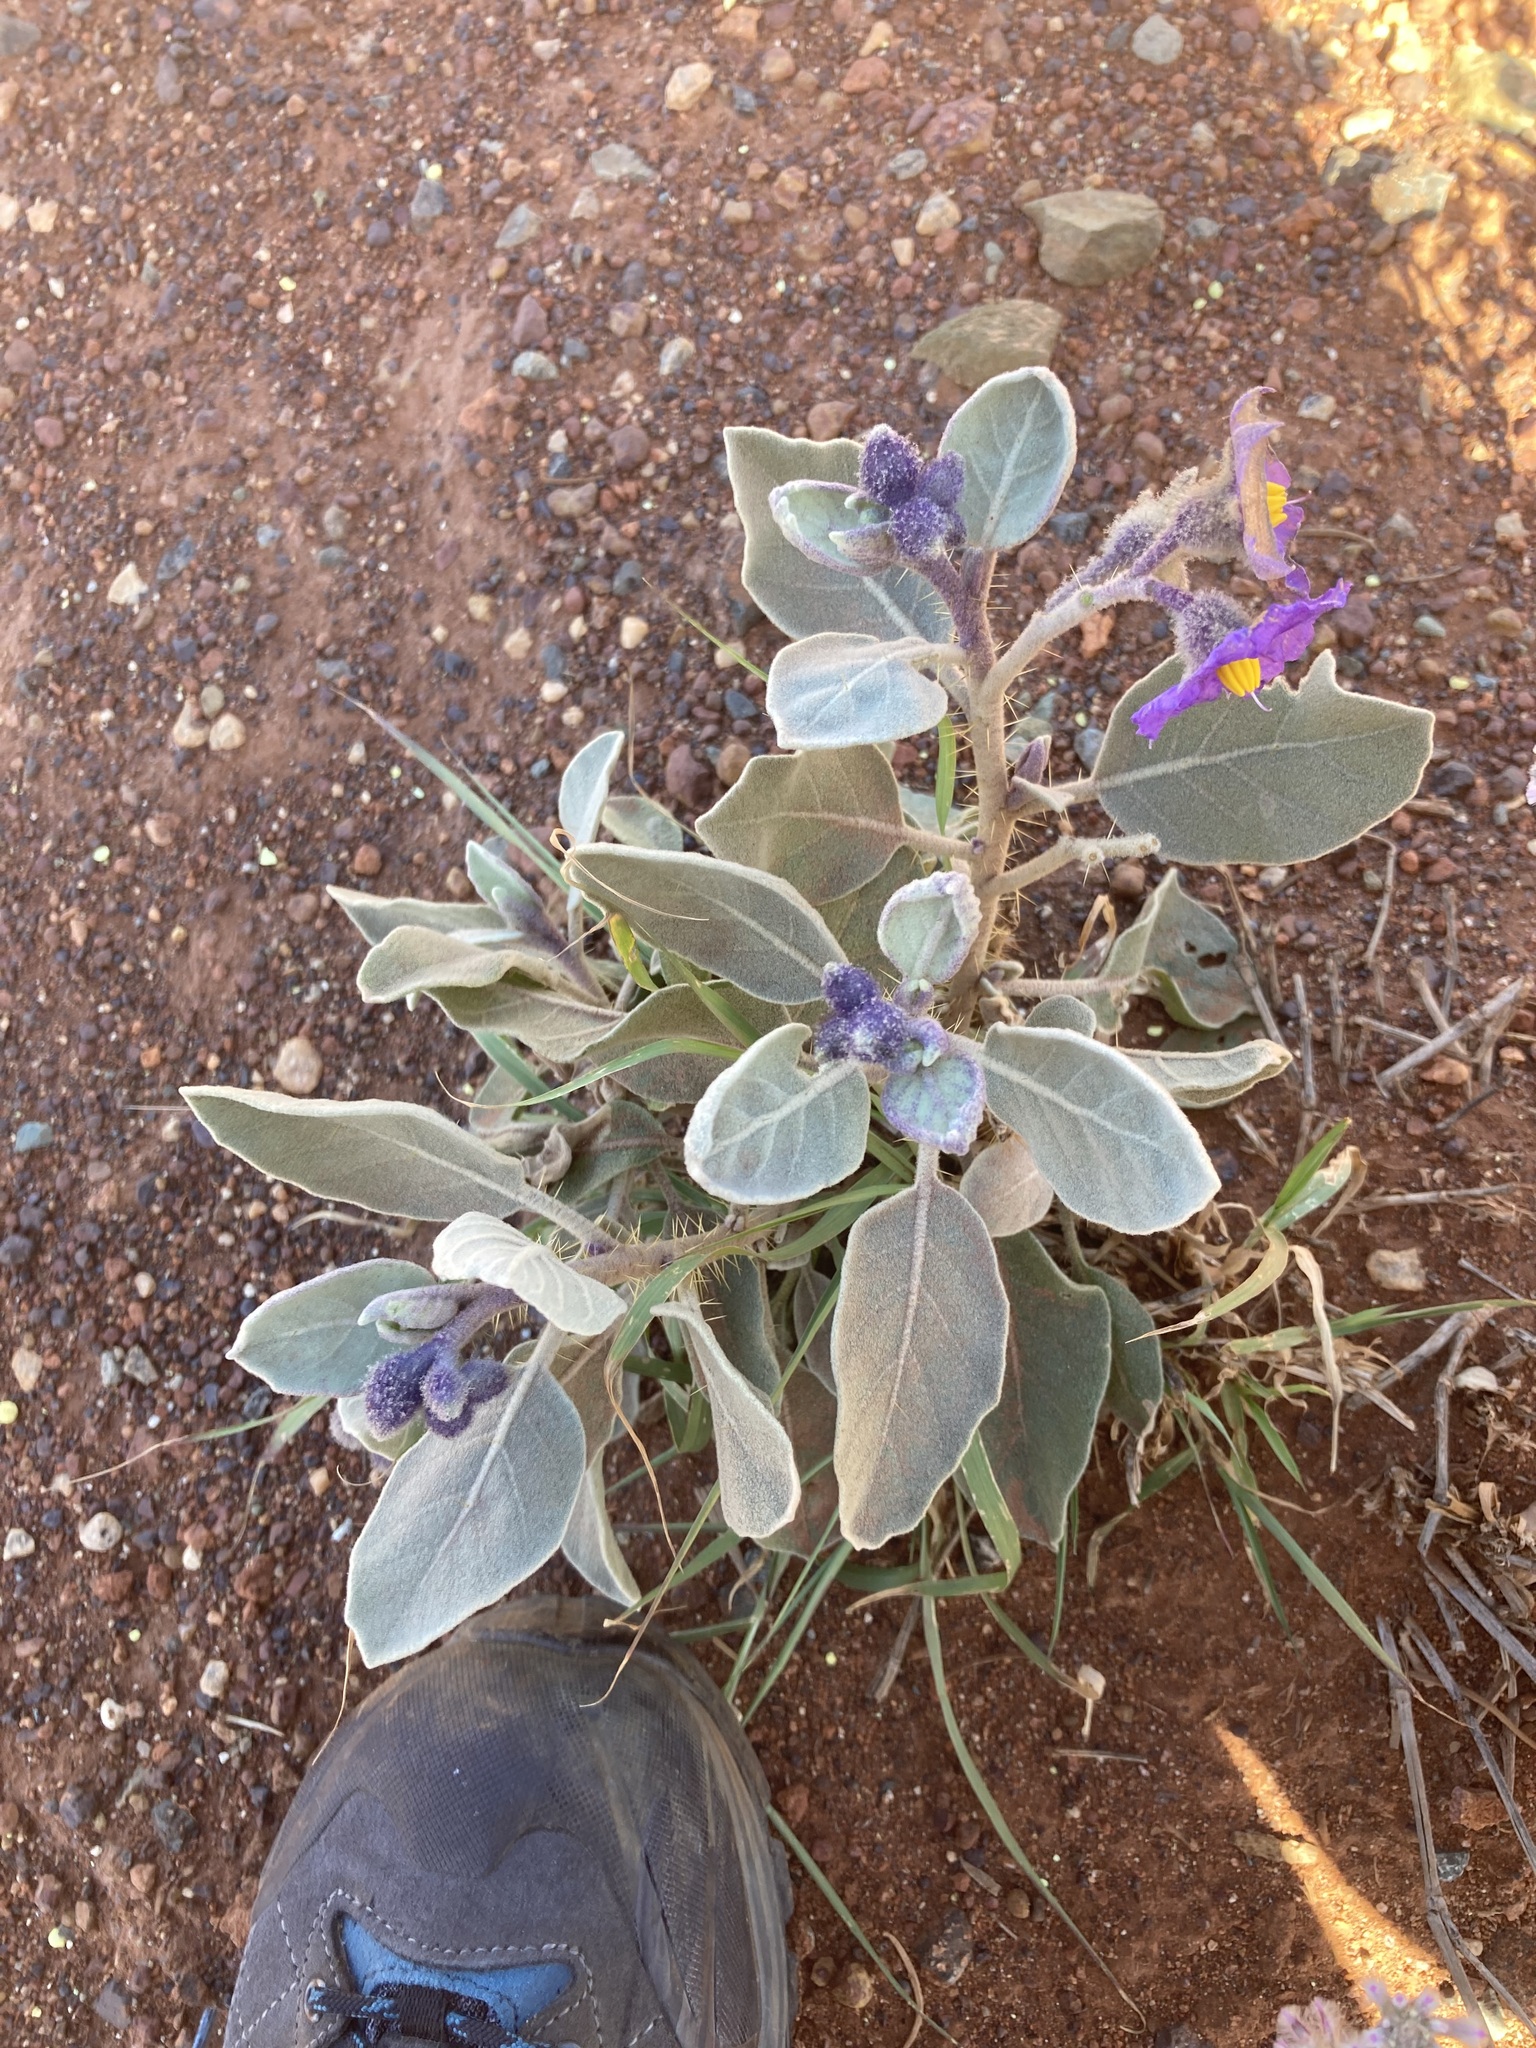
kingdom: Plantae
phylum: Tracheophyta
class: Magnoliopsida
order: Solanales
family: Solanaceae
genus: Solanum
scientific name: Solanum lasiophyllum
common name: Flannelbush
